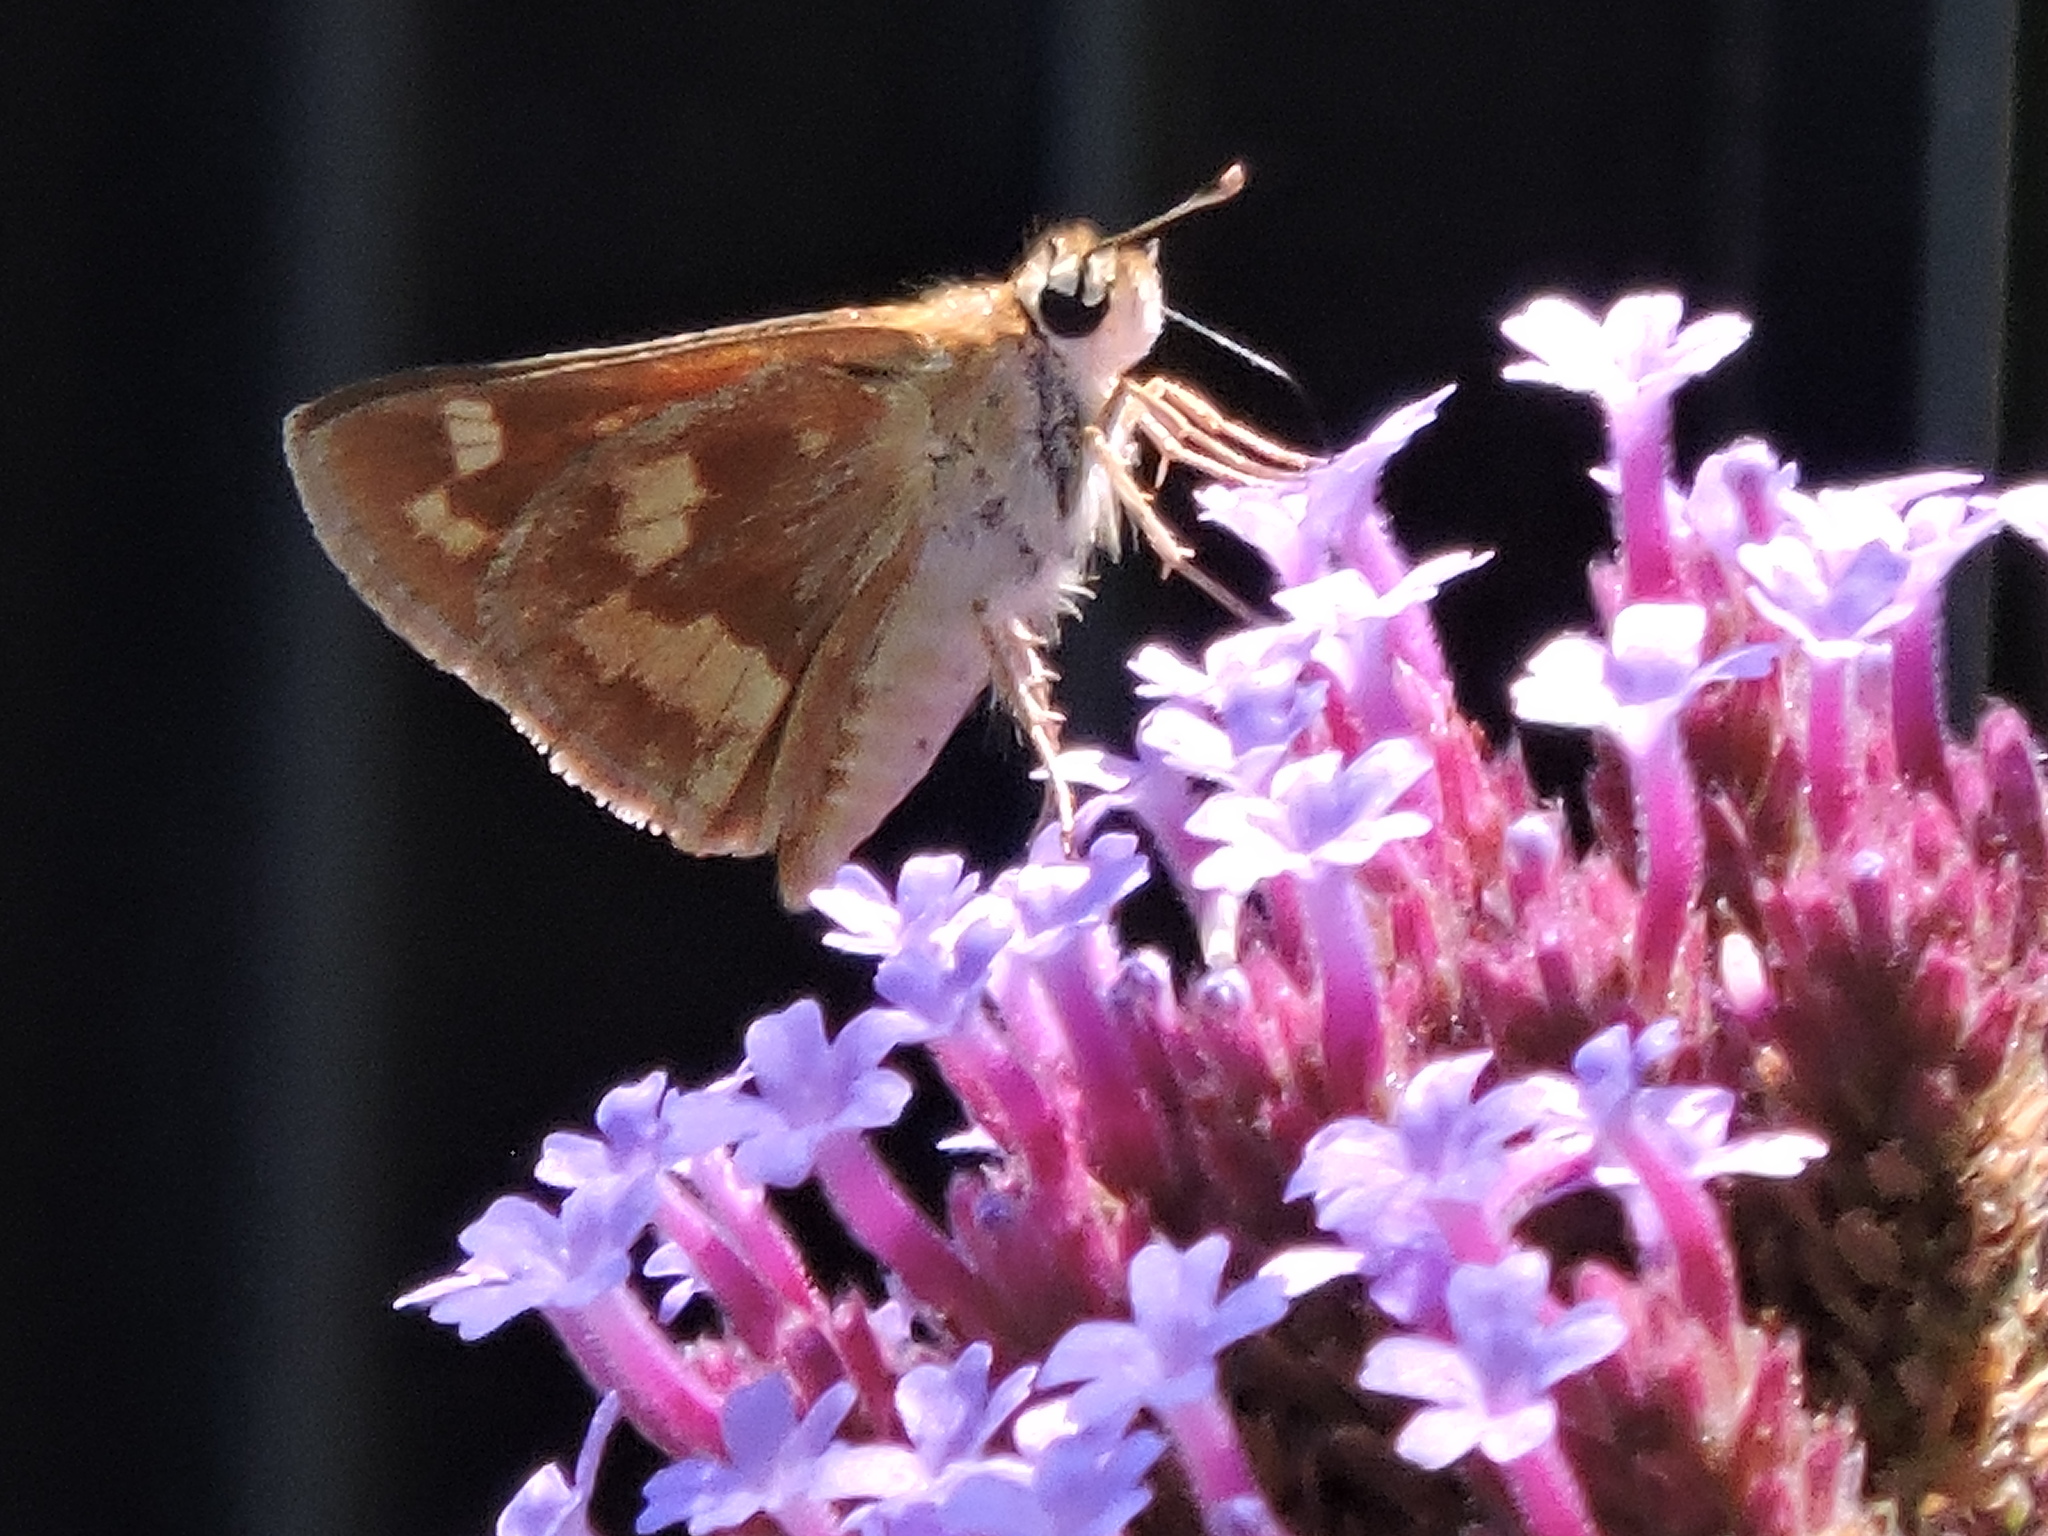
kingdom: Animalia
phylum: Arthropoda
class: Insecta
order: Lepidoptera
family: Hesperiidae
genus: Ochlodes
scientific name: Ochlodes sylvanoides
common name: Woodland skipper
